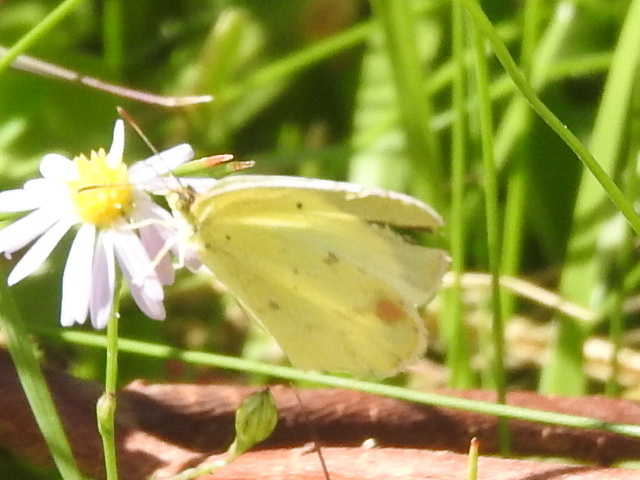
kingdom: Animalia
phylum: Arthropoda
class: Insecta
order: Lepidoptera
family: Pieridae
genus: Pyrisitia
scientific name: Pyrisitia lisa
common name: Little yellow
